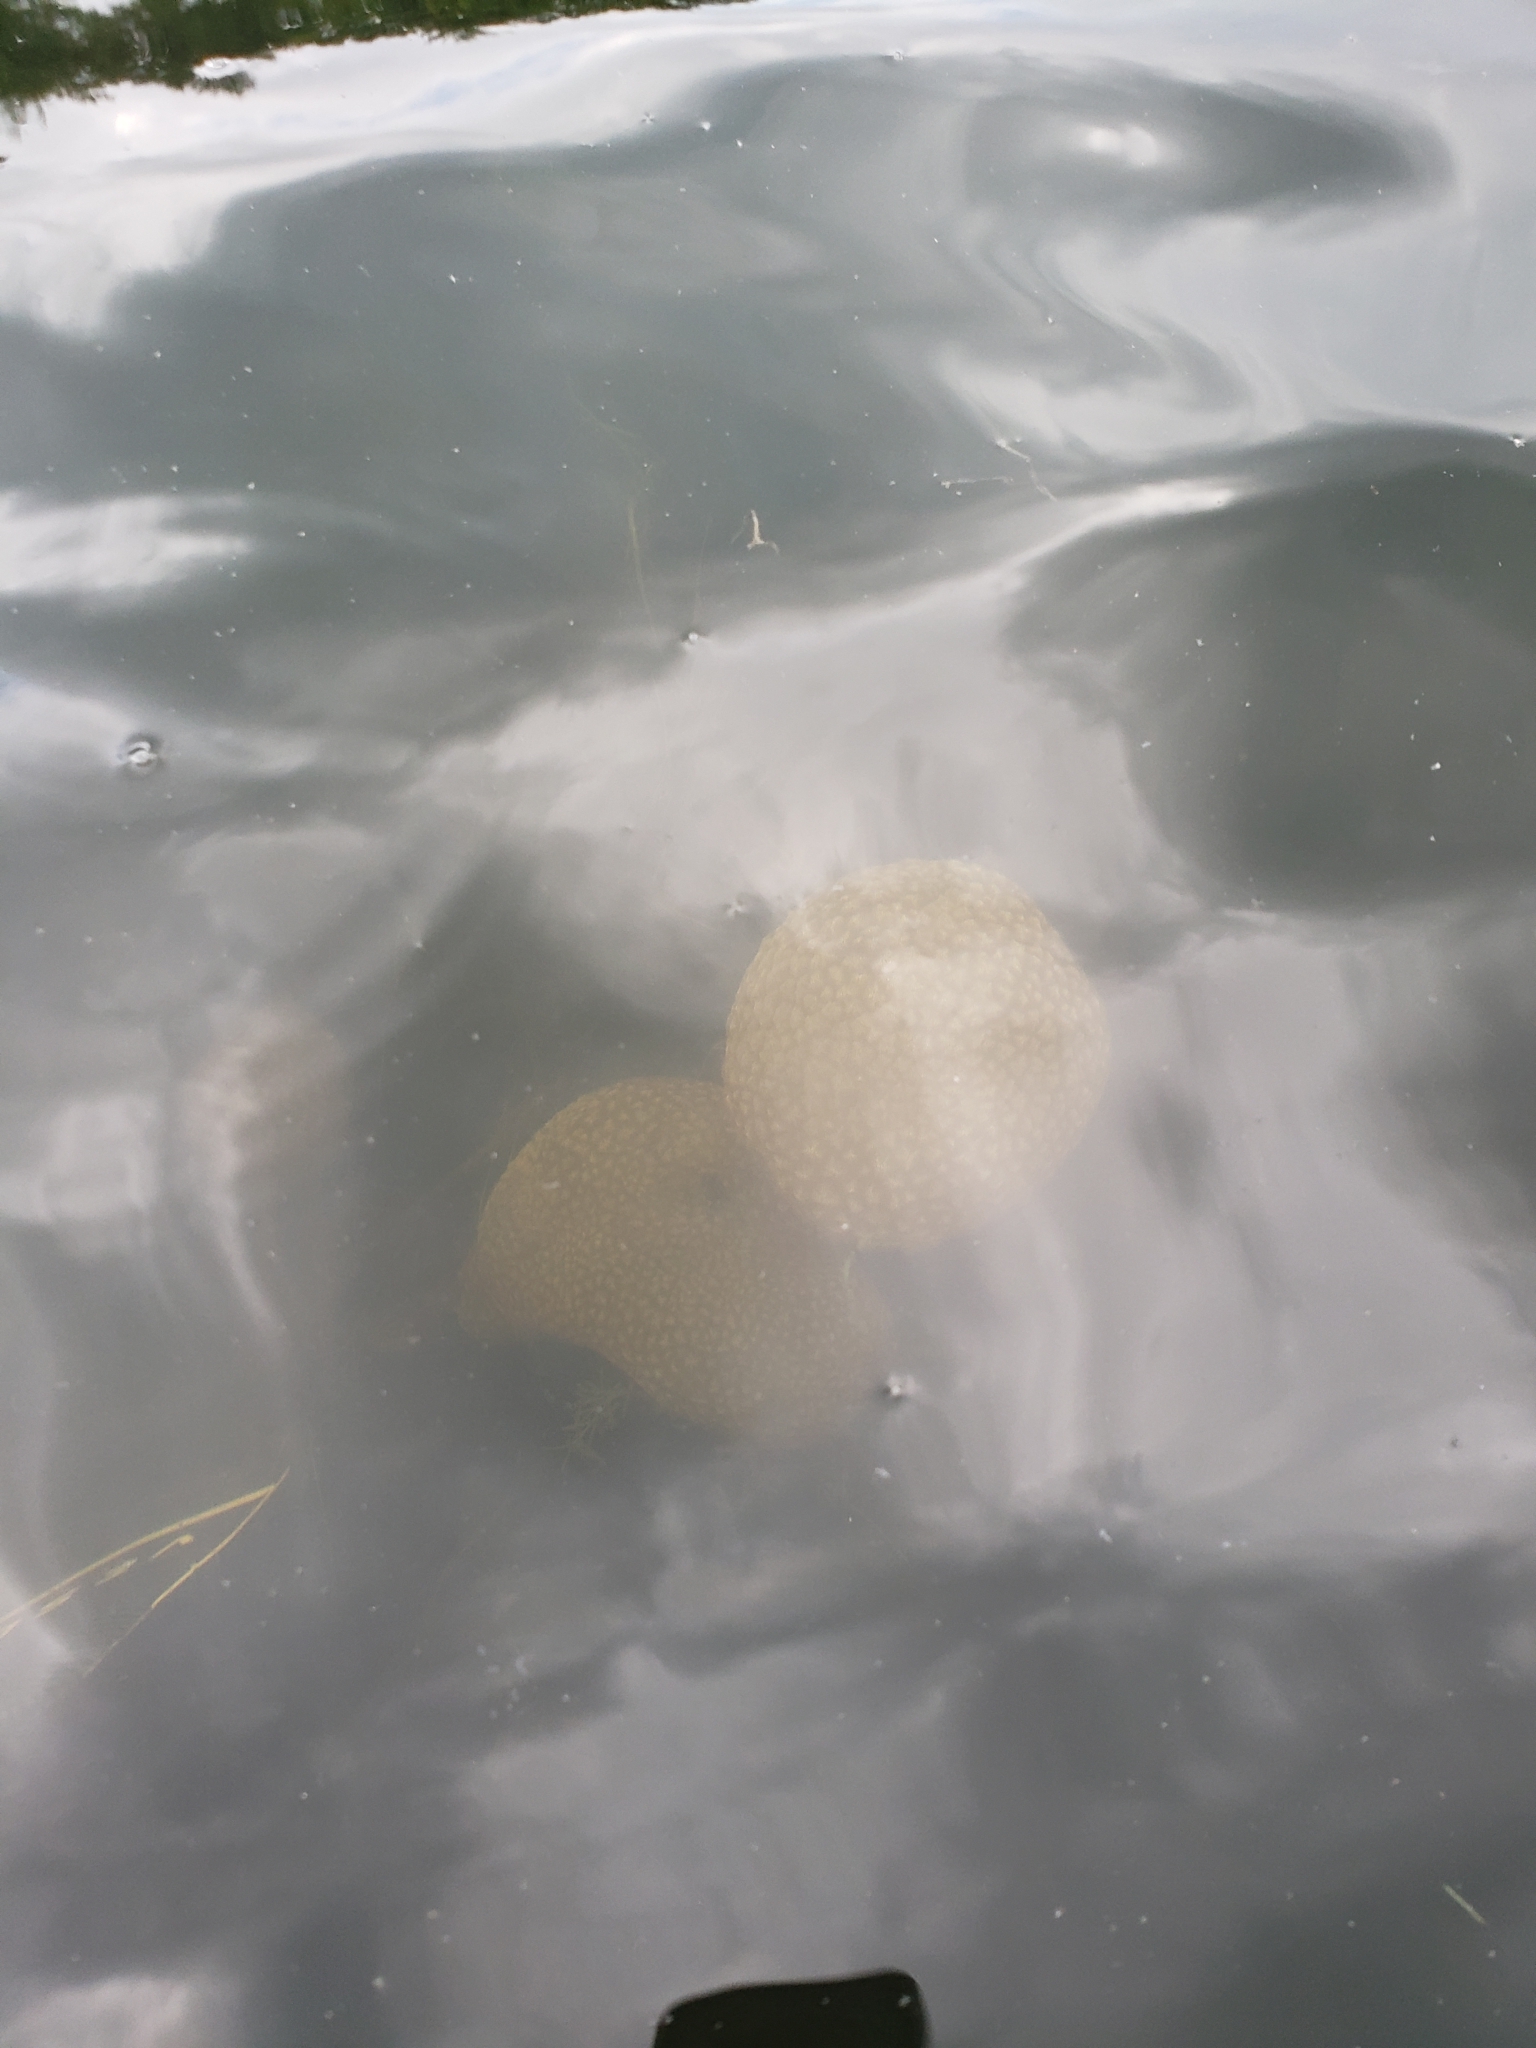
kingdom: Animalia
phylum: Bryozoa
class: Phylactolaemata
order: Plumatellida
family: Pectinatellidae
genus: Pectinatella
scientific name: Pectinatella magnifica
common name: Magnificent bryozoan
